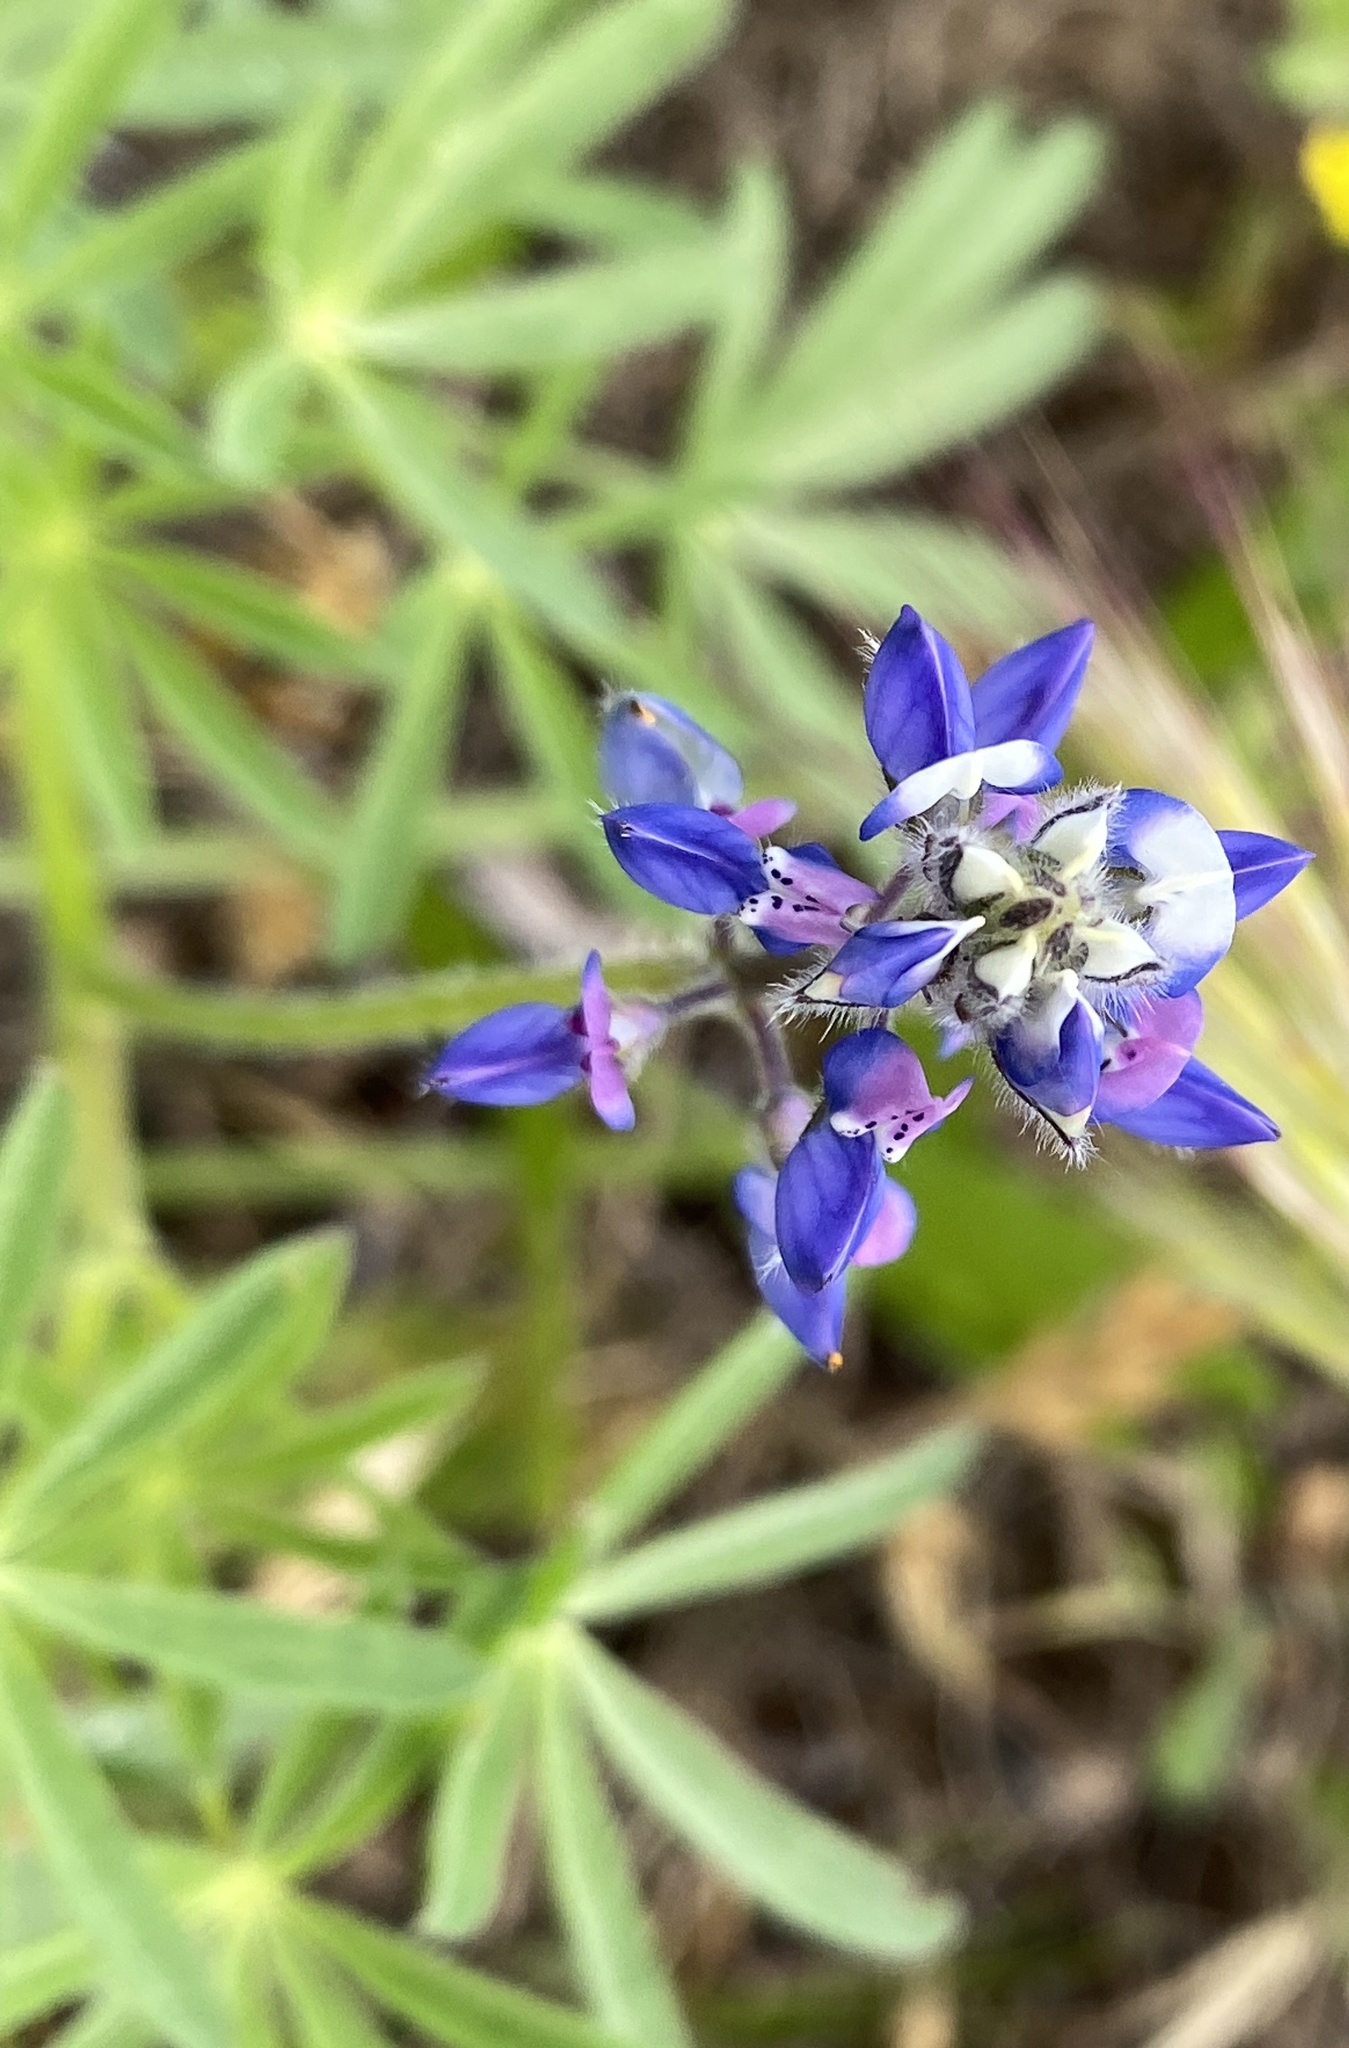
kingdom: Plantae
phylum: Tracheophyta
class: Magnoliopsida
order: Fabales
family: Fabaceae
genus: Lupinus
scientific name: Lupinus bicolor
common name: Miniature lupine
